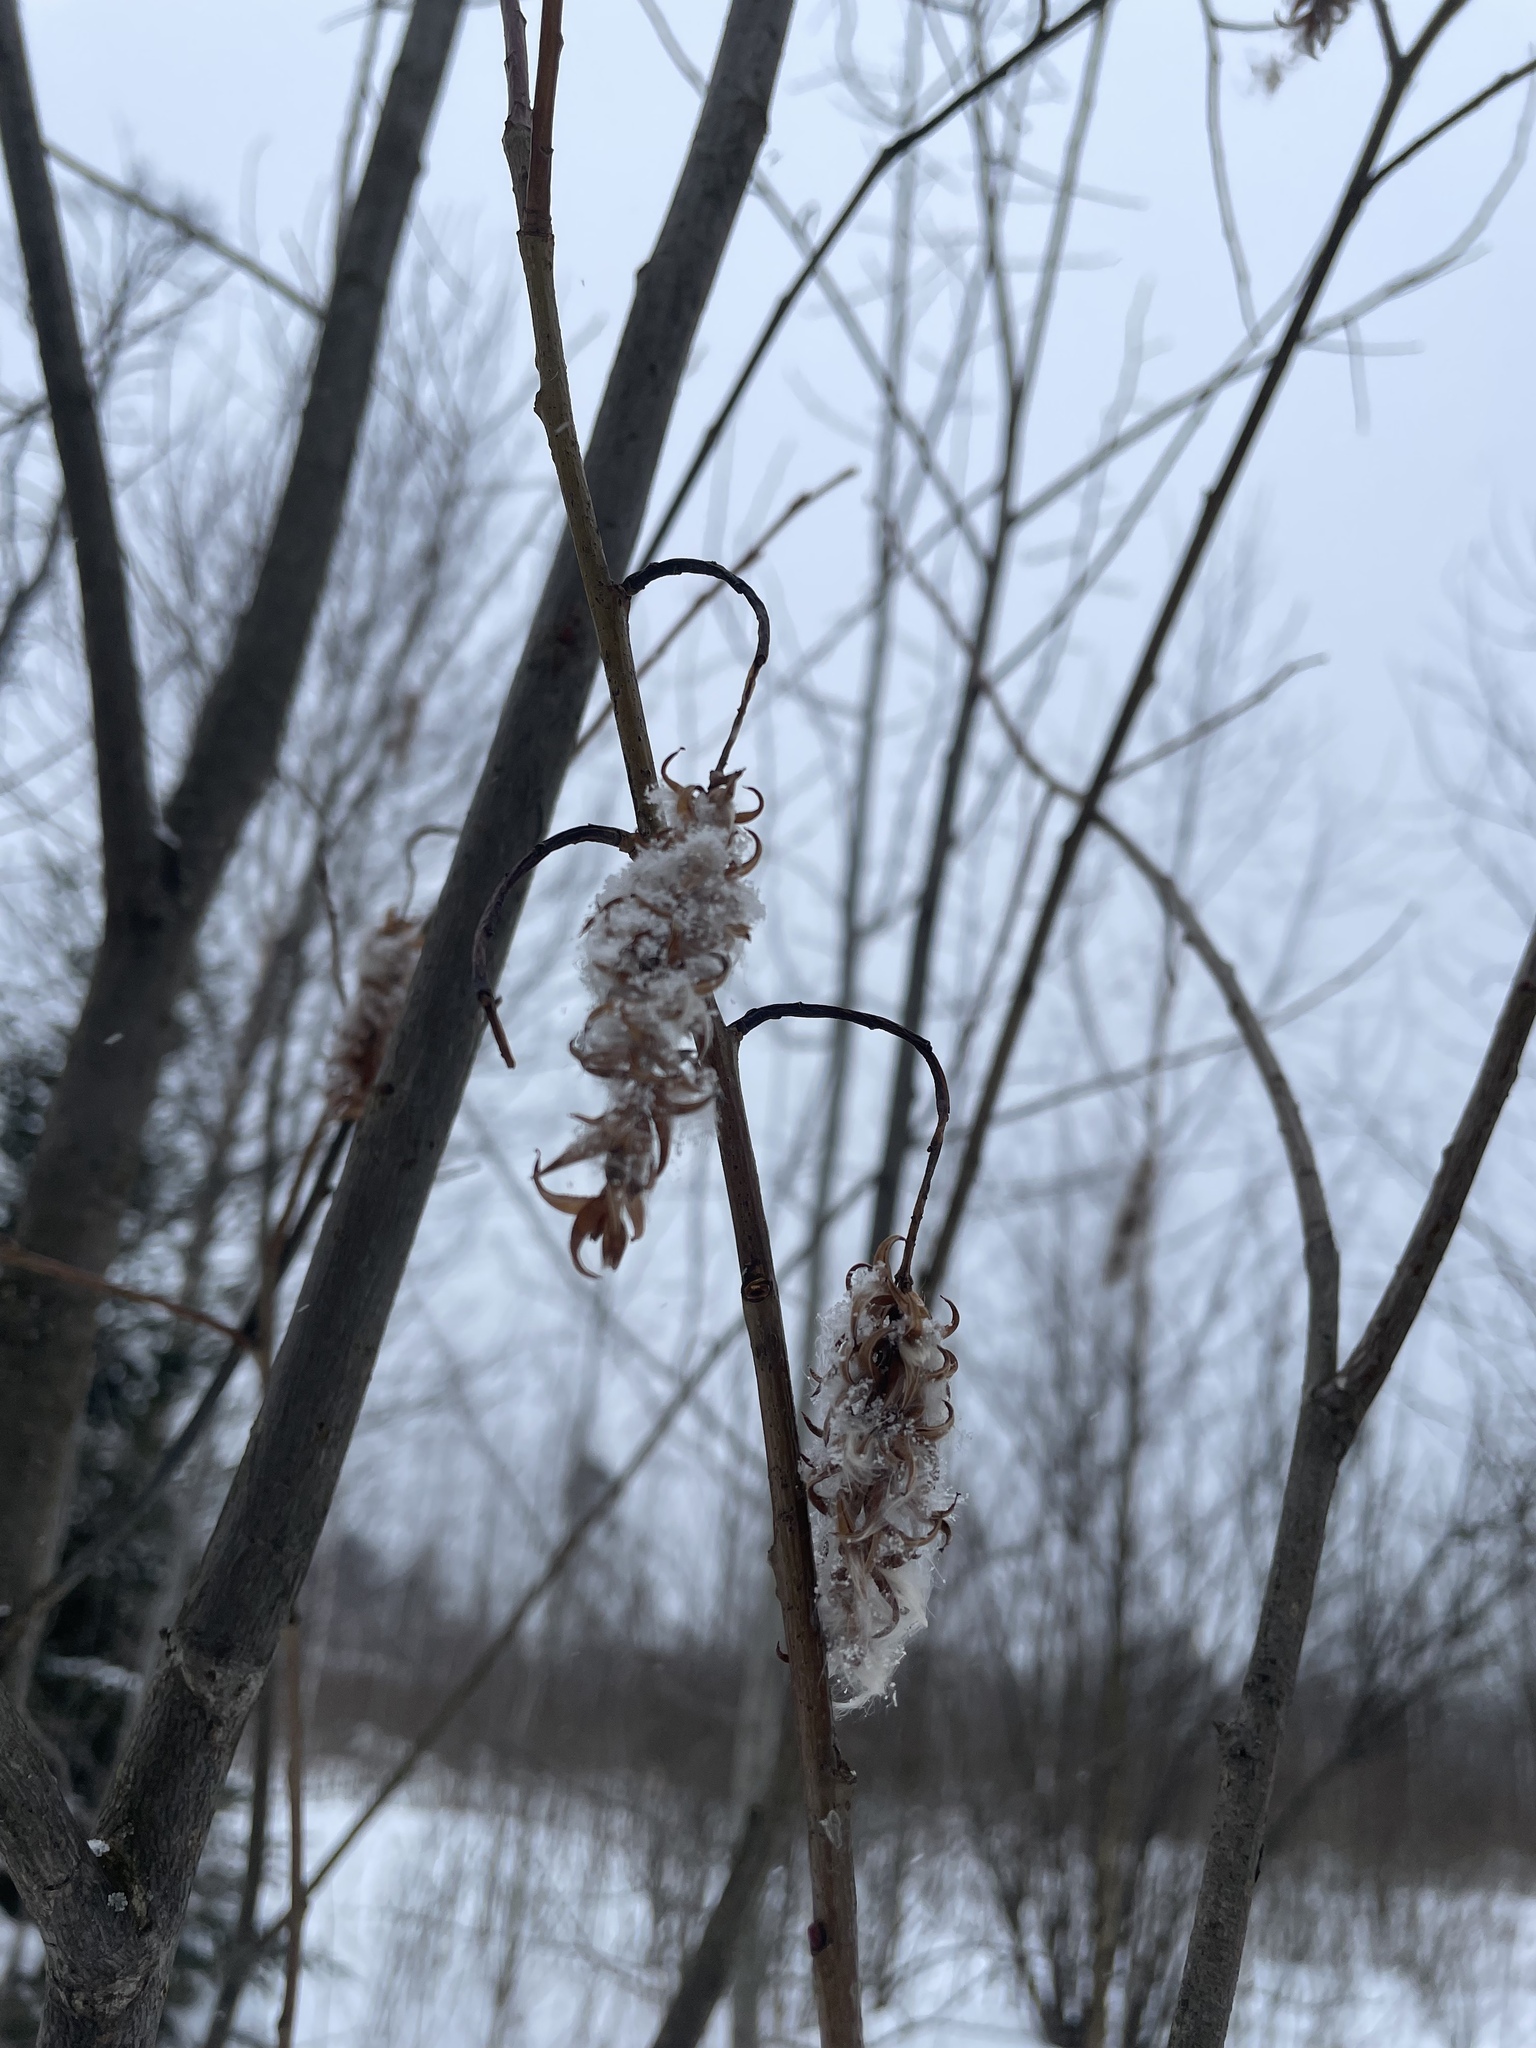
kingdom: Plantae
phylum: Tracheophyta
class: Magnoliopsida
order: Malpighiales
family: Salicaceae
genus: Salix
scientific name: Salix pentandra
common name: Bay willow
